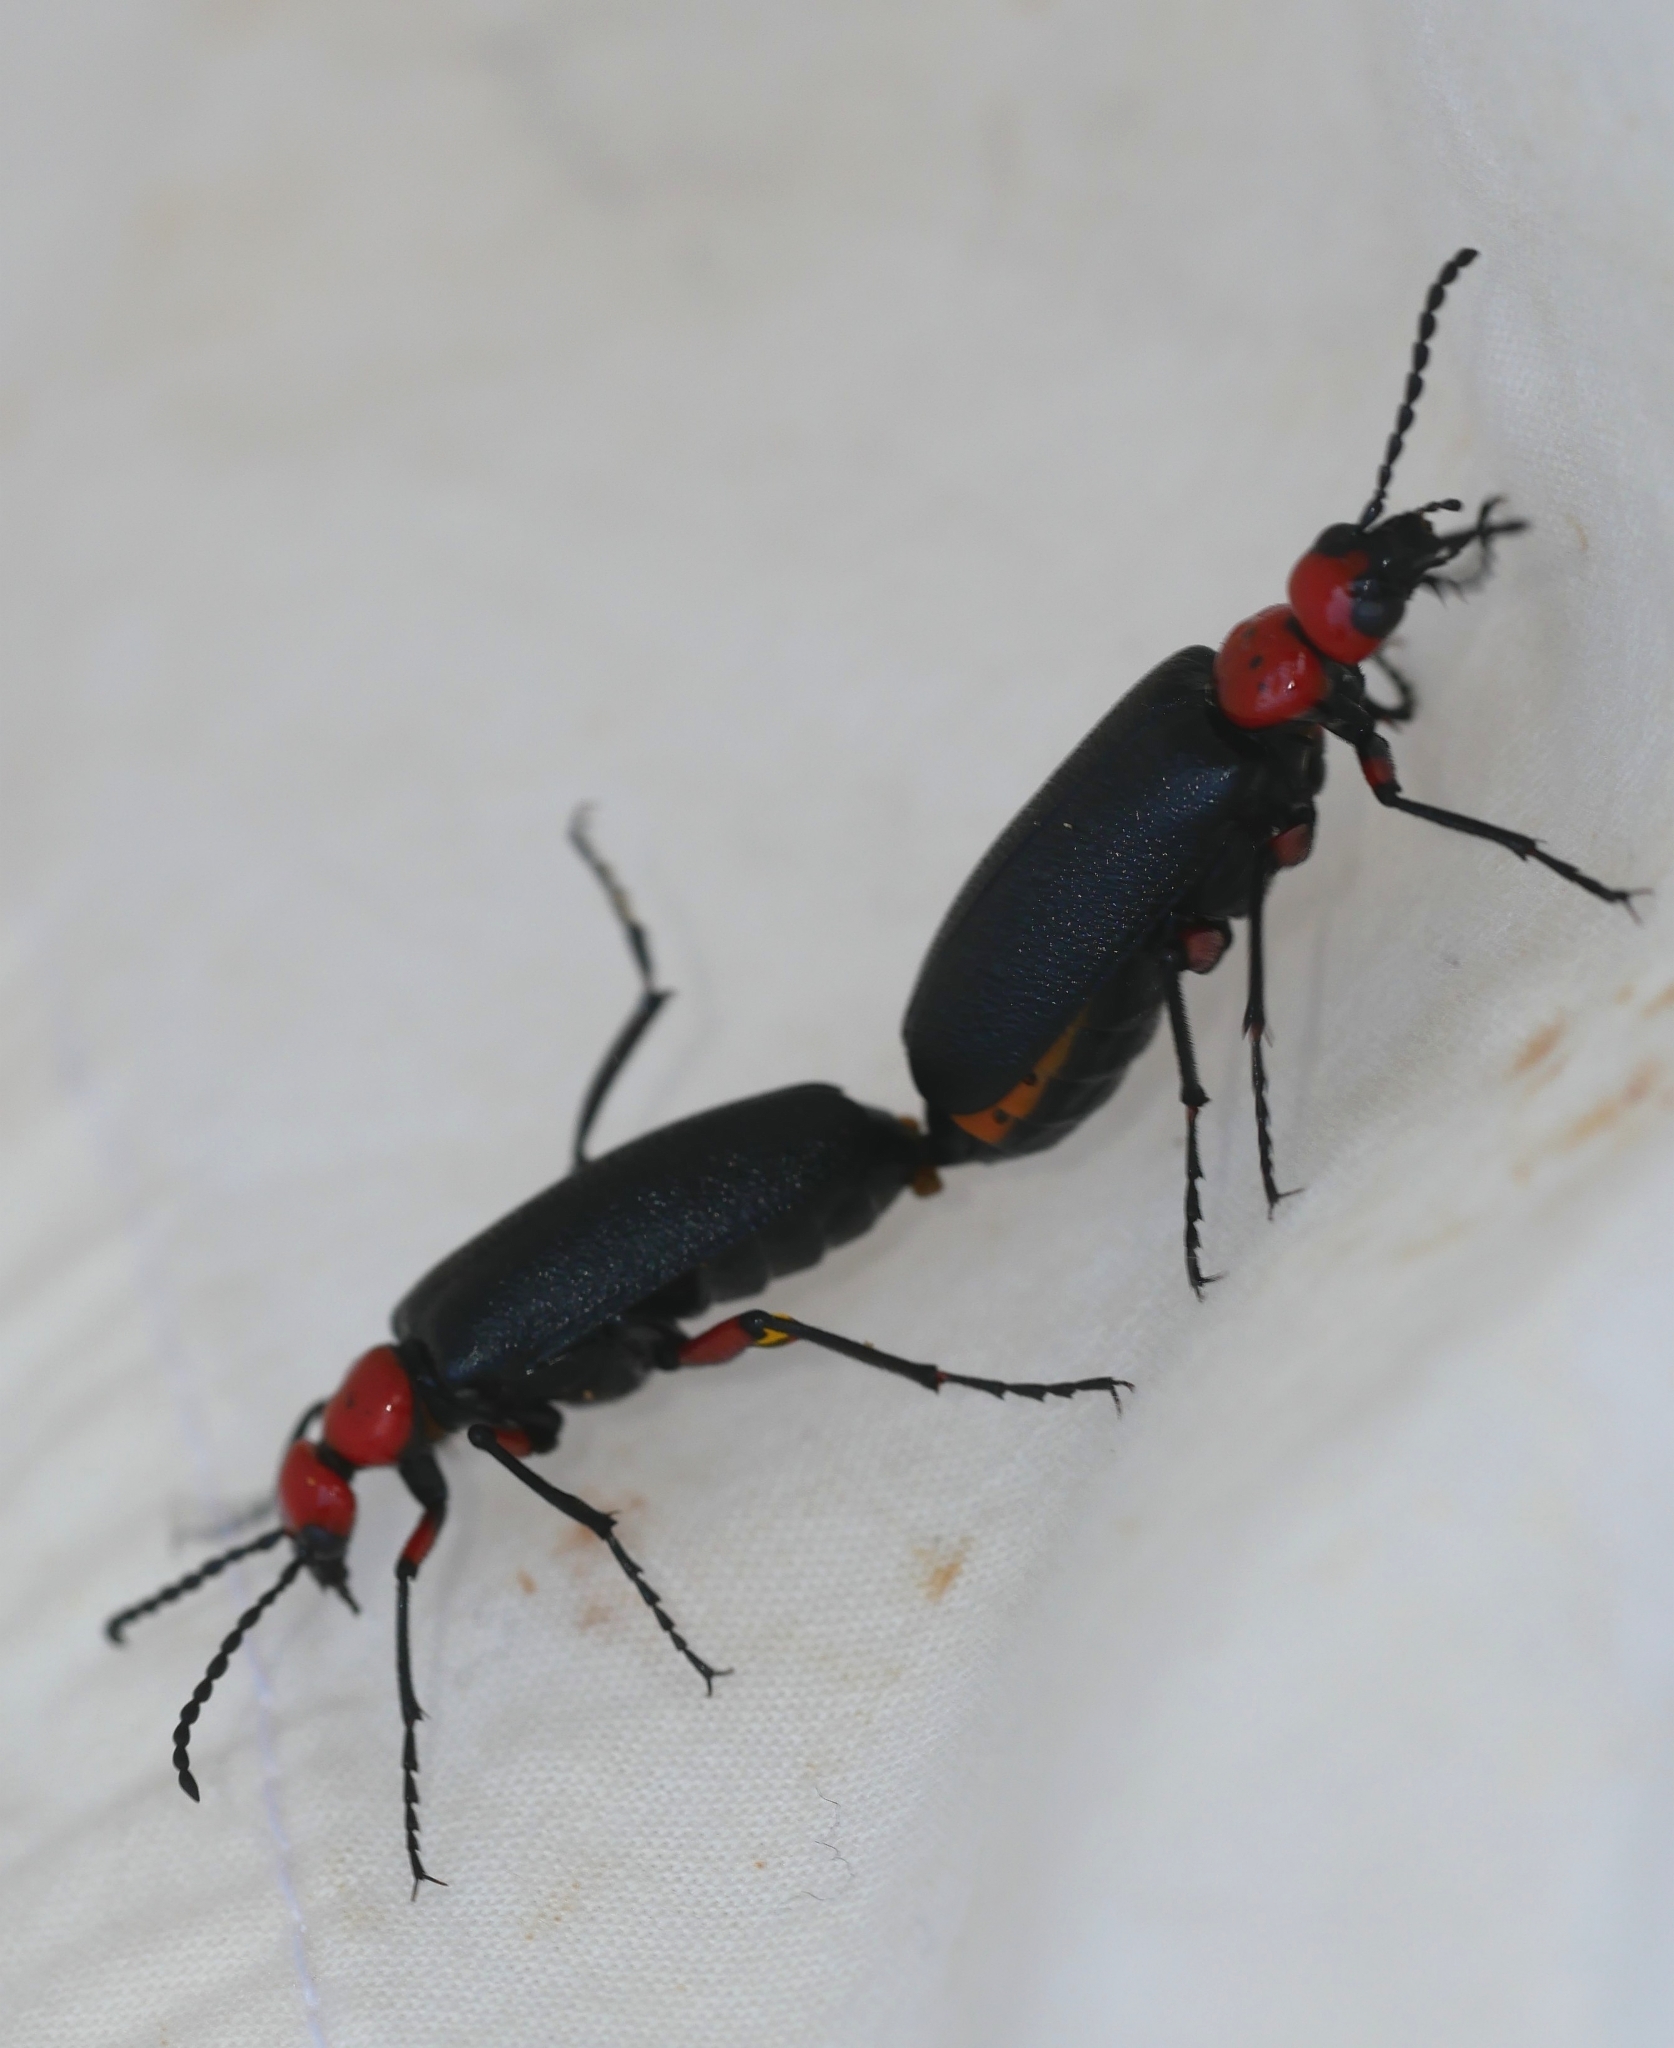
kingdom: Animalia
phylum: Arthropoda
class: Insecta
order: Coleoptera
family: Meloidae
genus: Lytta
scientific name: Lytta deserticola
